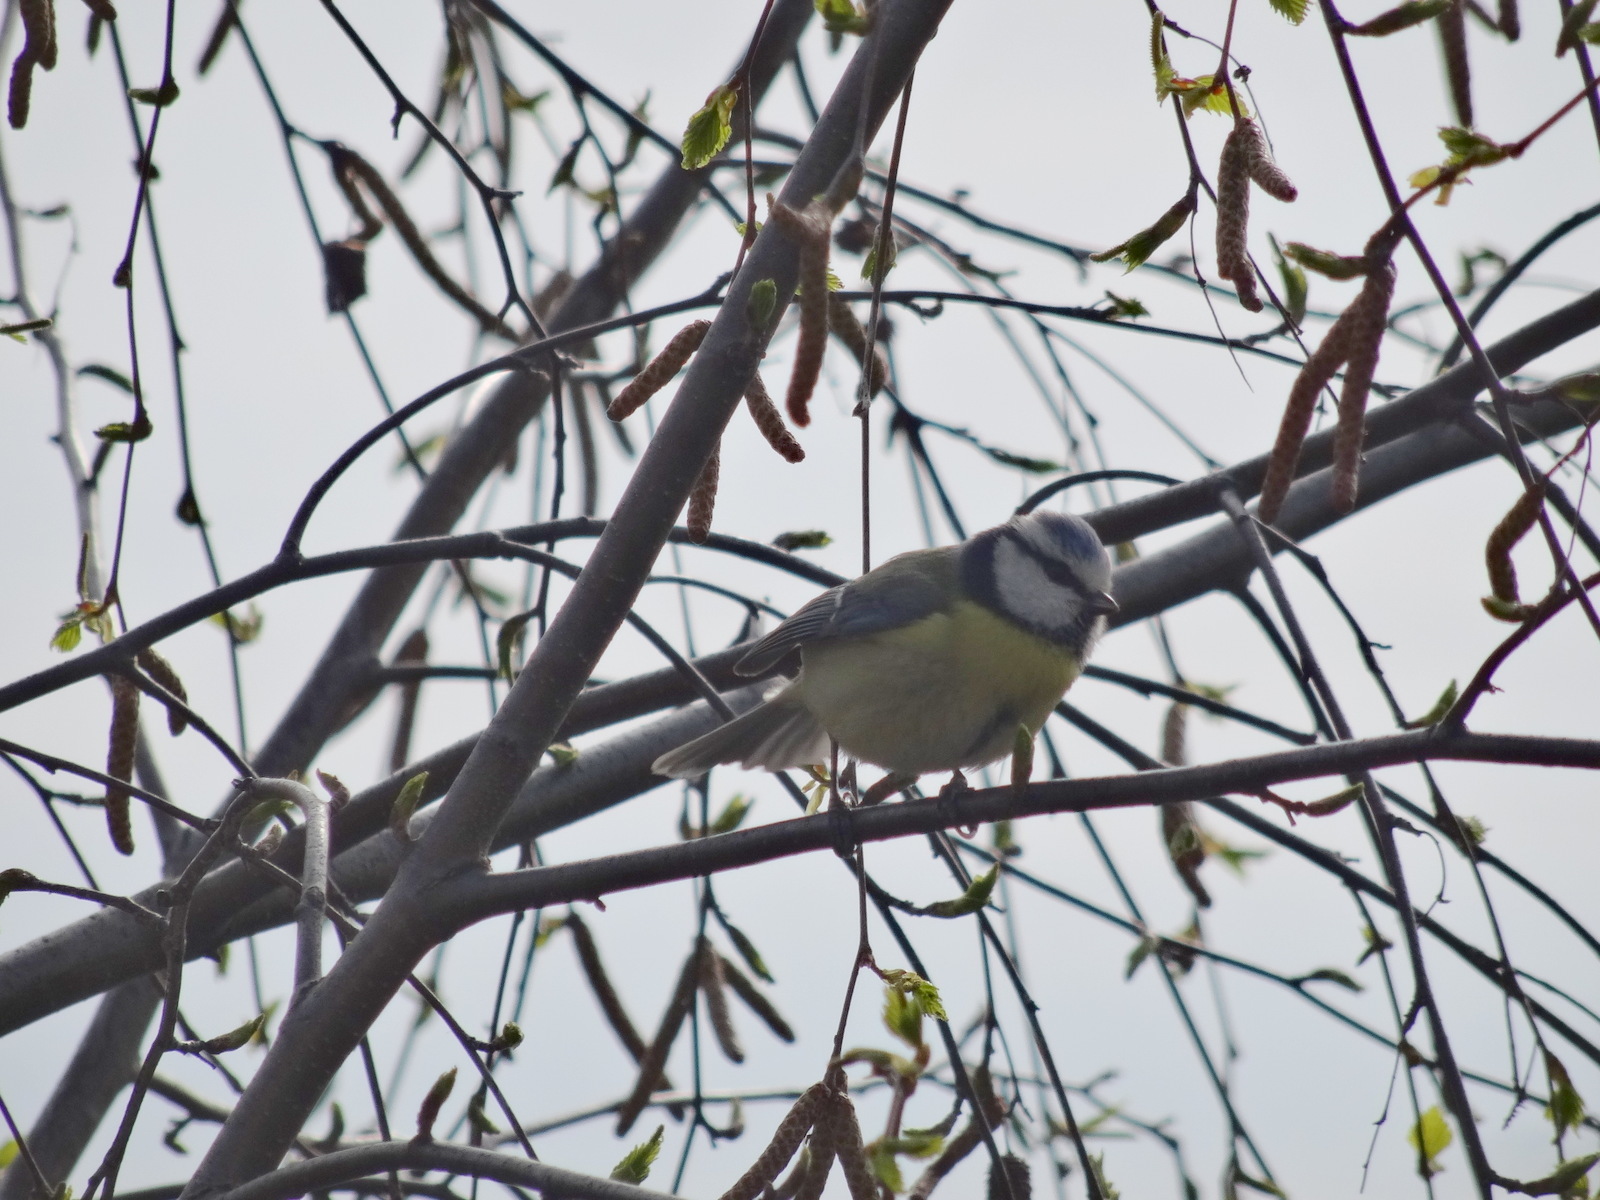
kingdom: Animalia
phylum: Chordata
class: Aves
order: Passeriformes
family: Paridae
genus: Cyanistes
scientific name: Cyanistes caeruleus
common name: Eurasian blue tit
